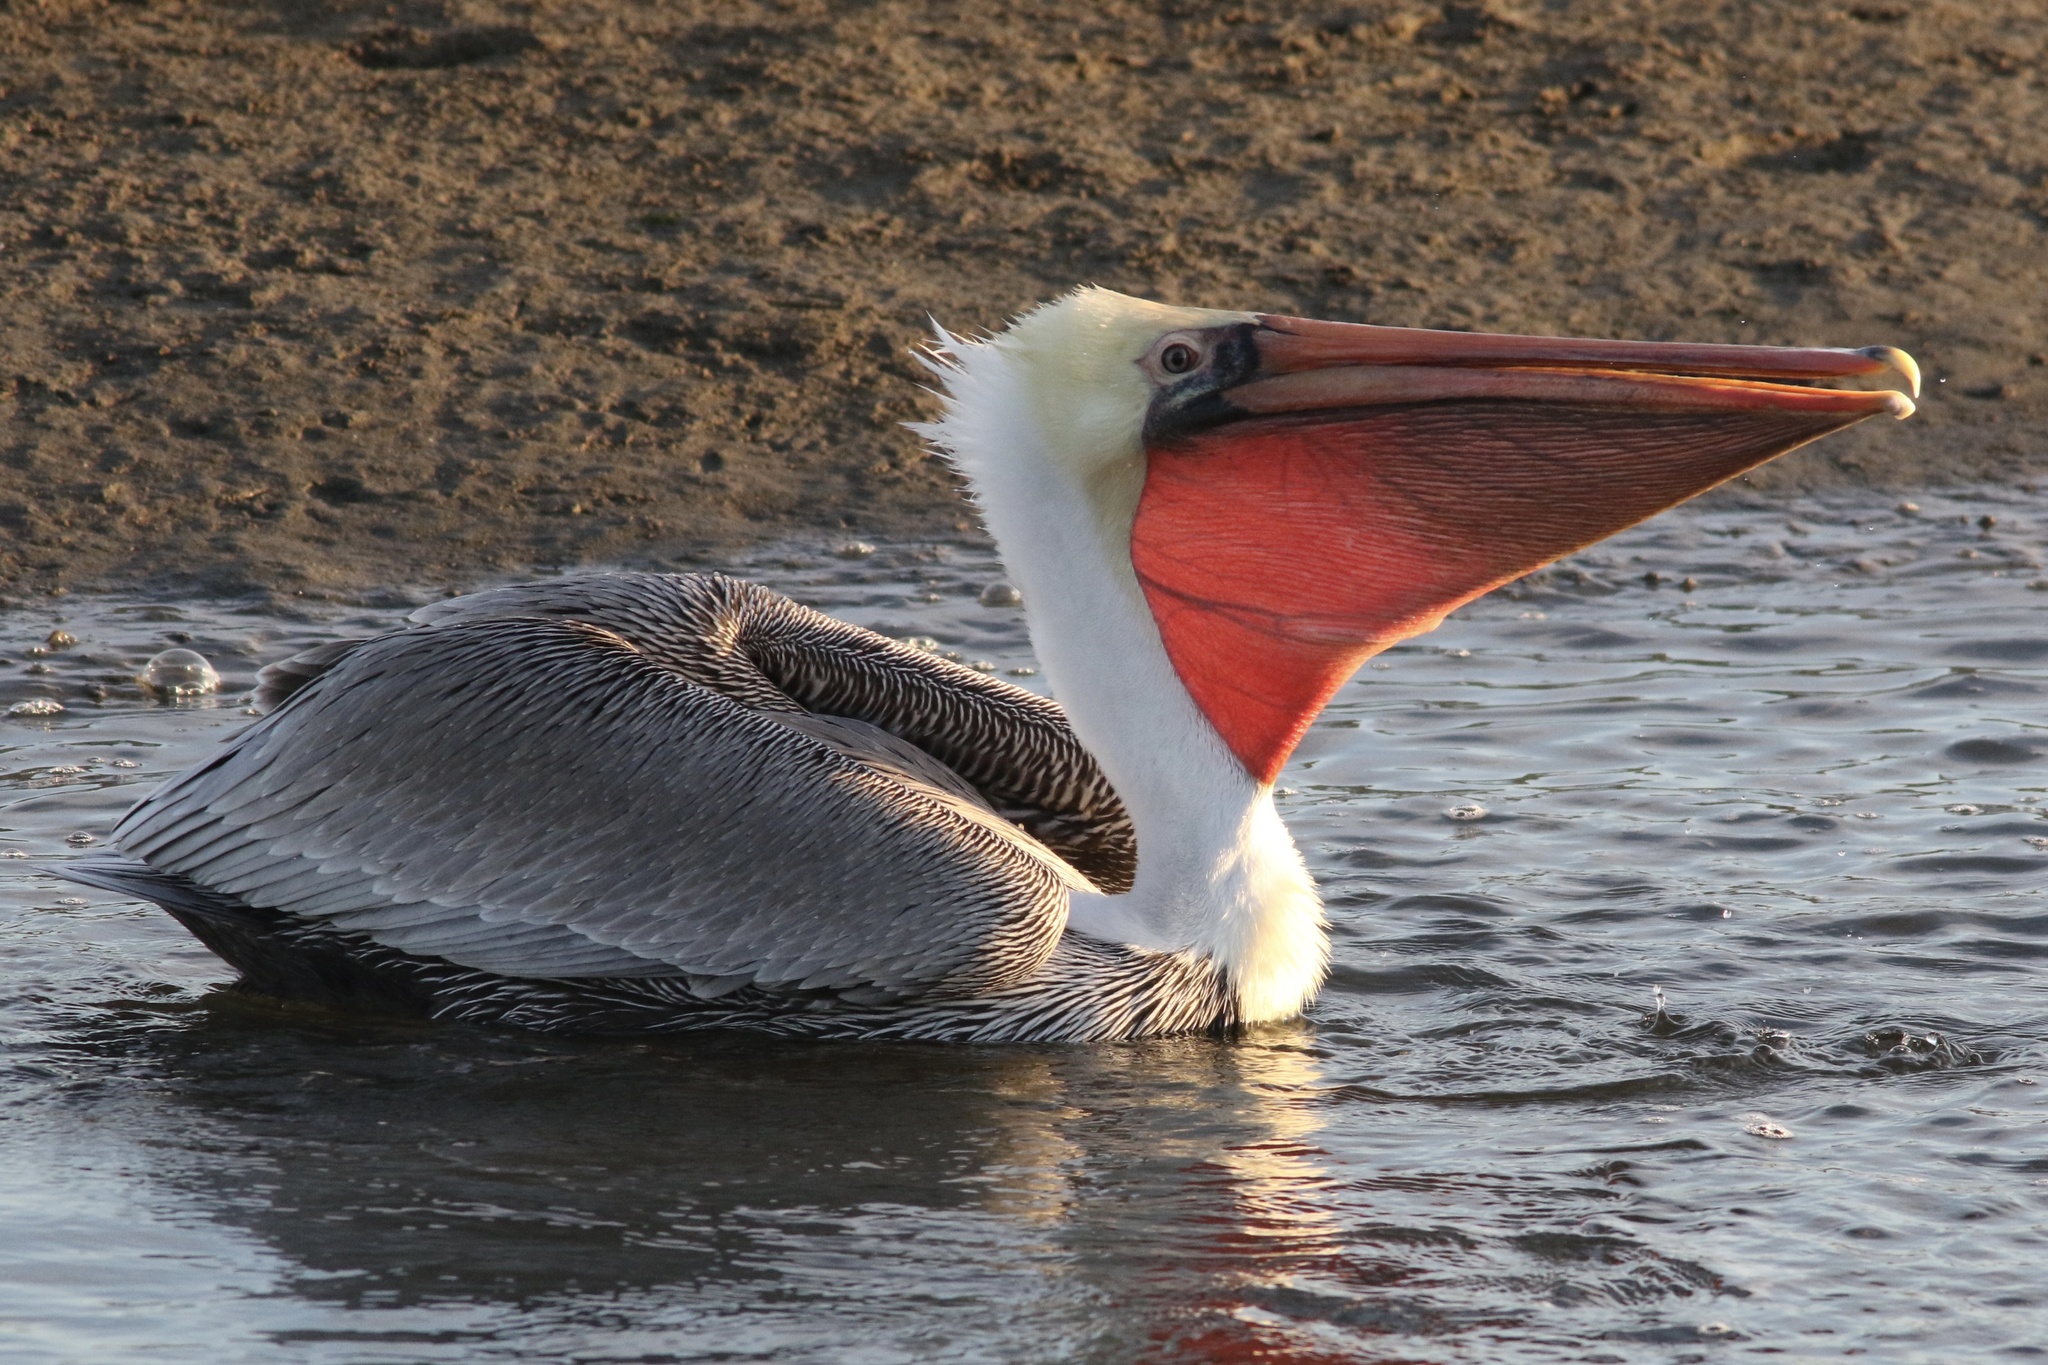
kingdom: Animalia
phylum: Chordata
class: Aves
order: Pelecaniformes
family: Pelecanidae
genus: Pelecanus
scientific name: Pelecanus occidentalis
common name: Brown pelican
